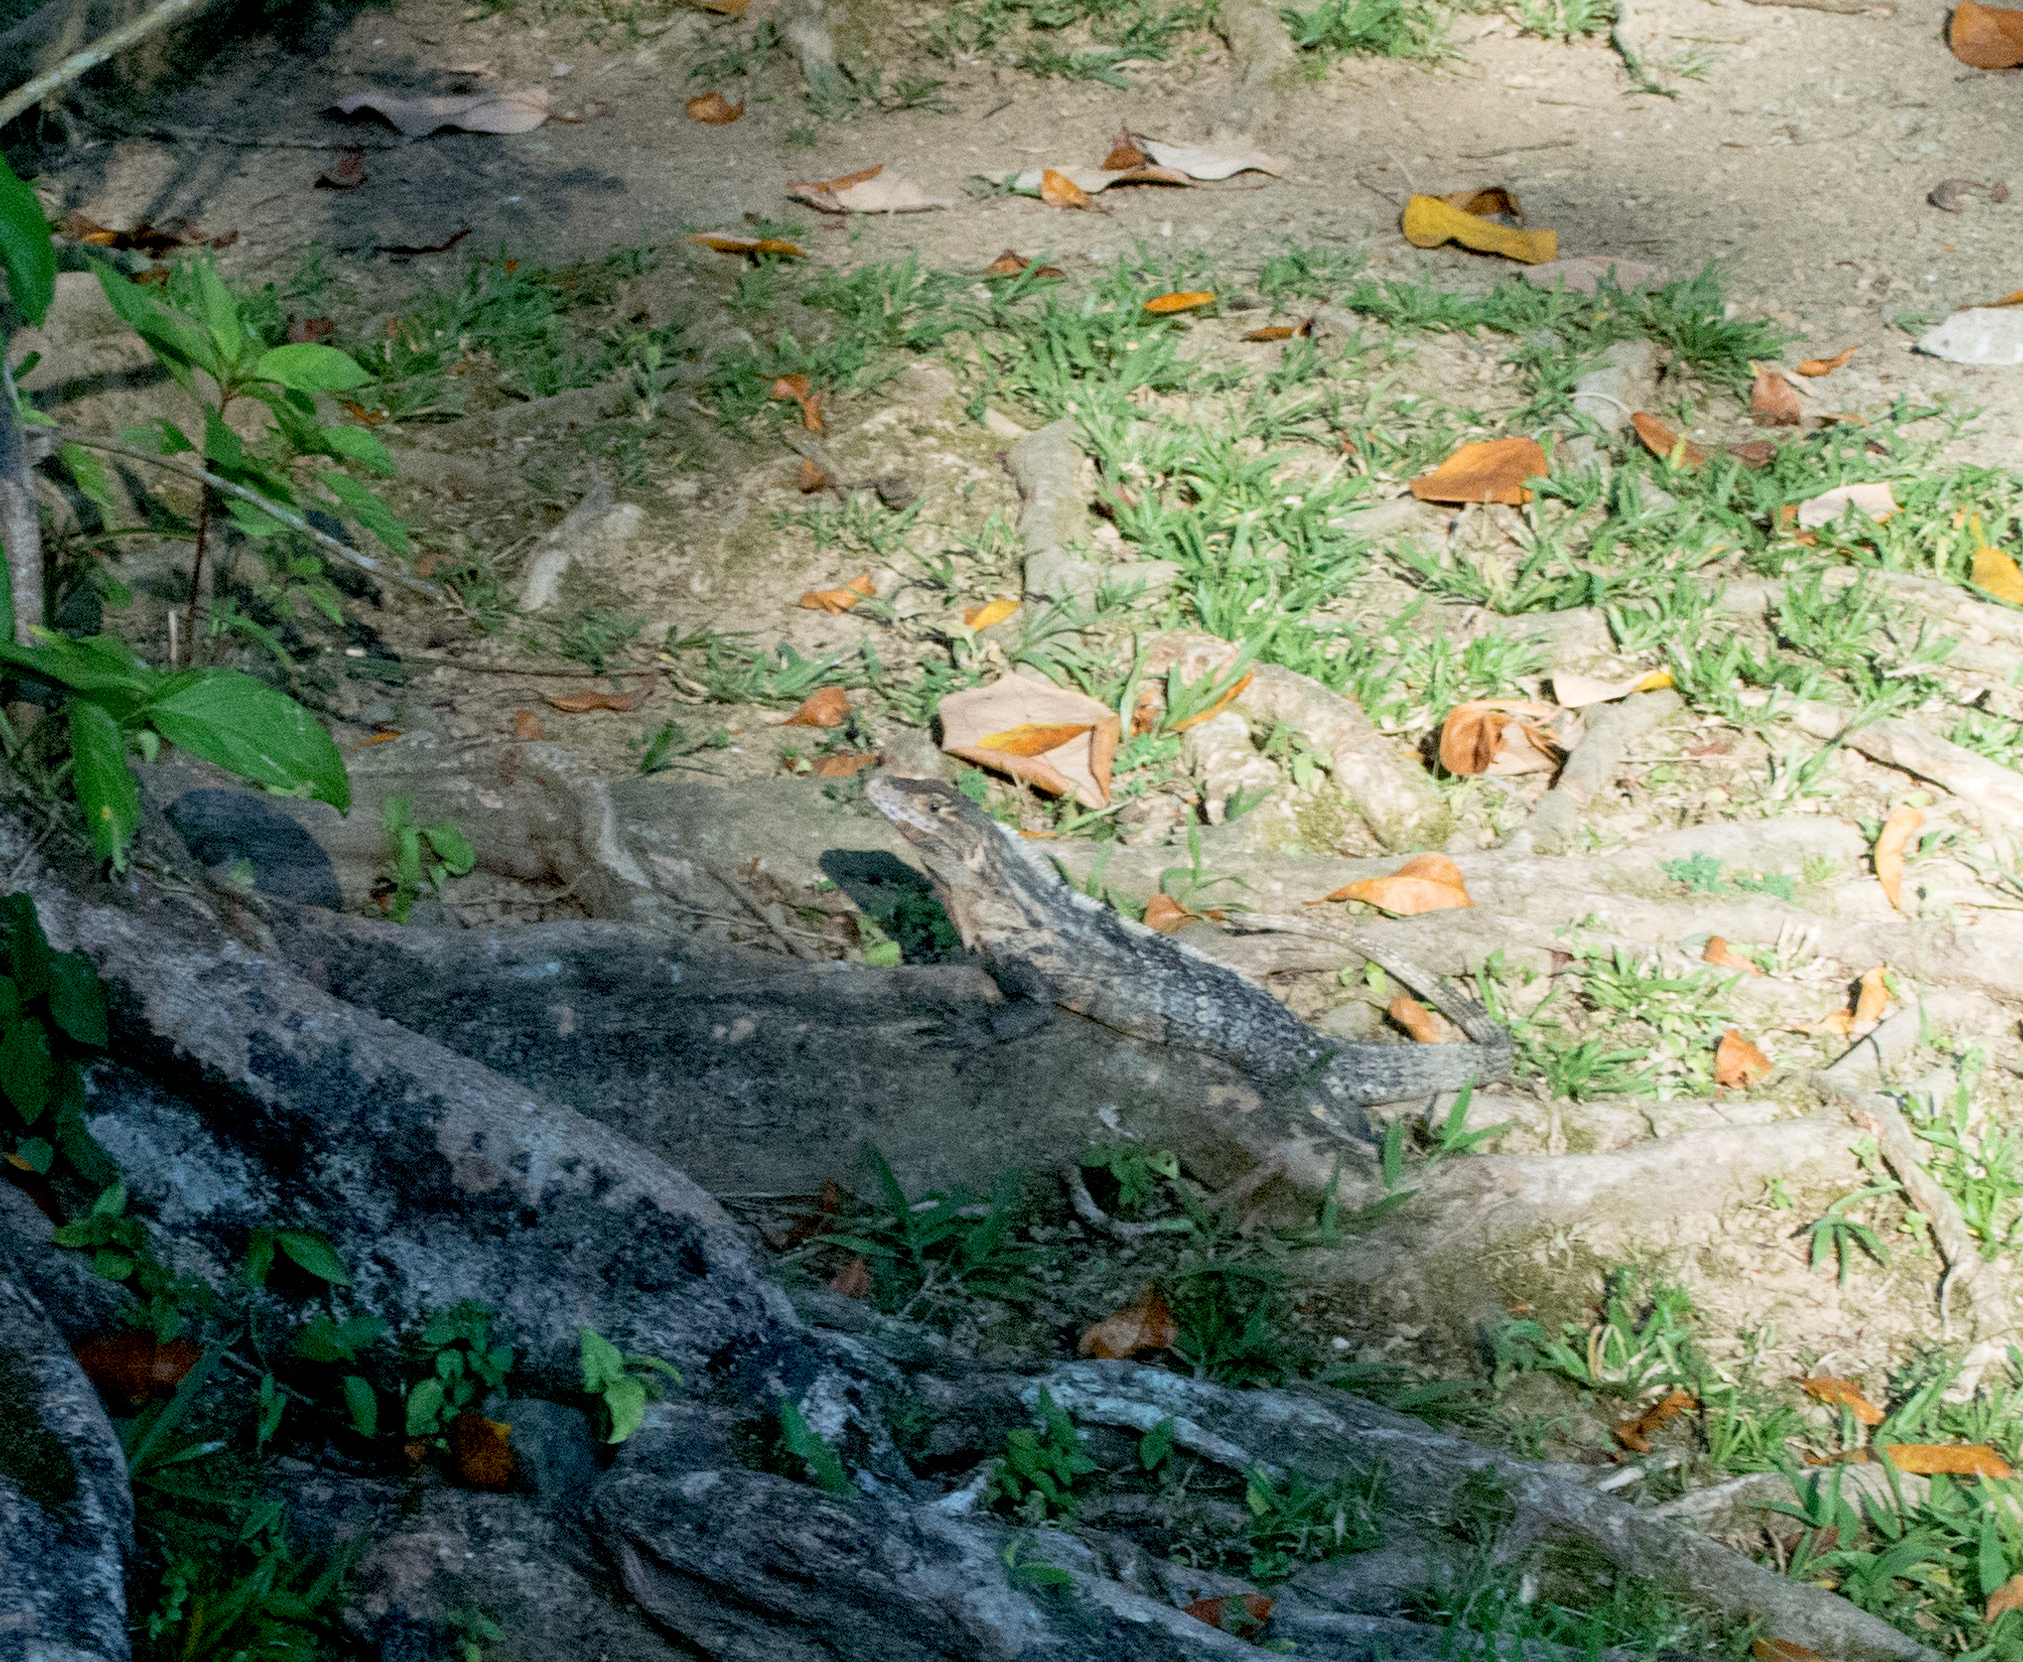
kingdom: Animalia
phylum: Chordata
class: Squamata
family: Iguanidae
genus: Ctenosaura
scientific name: Ctenosaura similis
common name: Black spiny-tailed iguana
